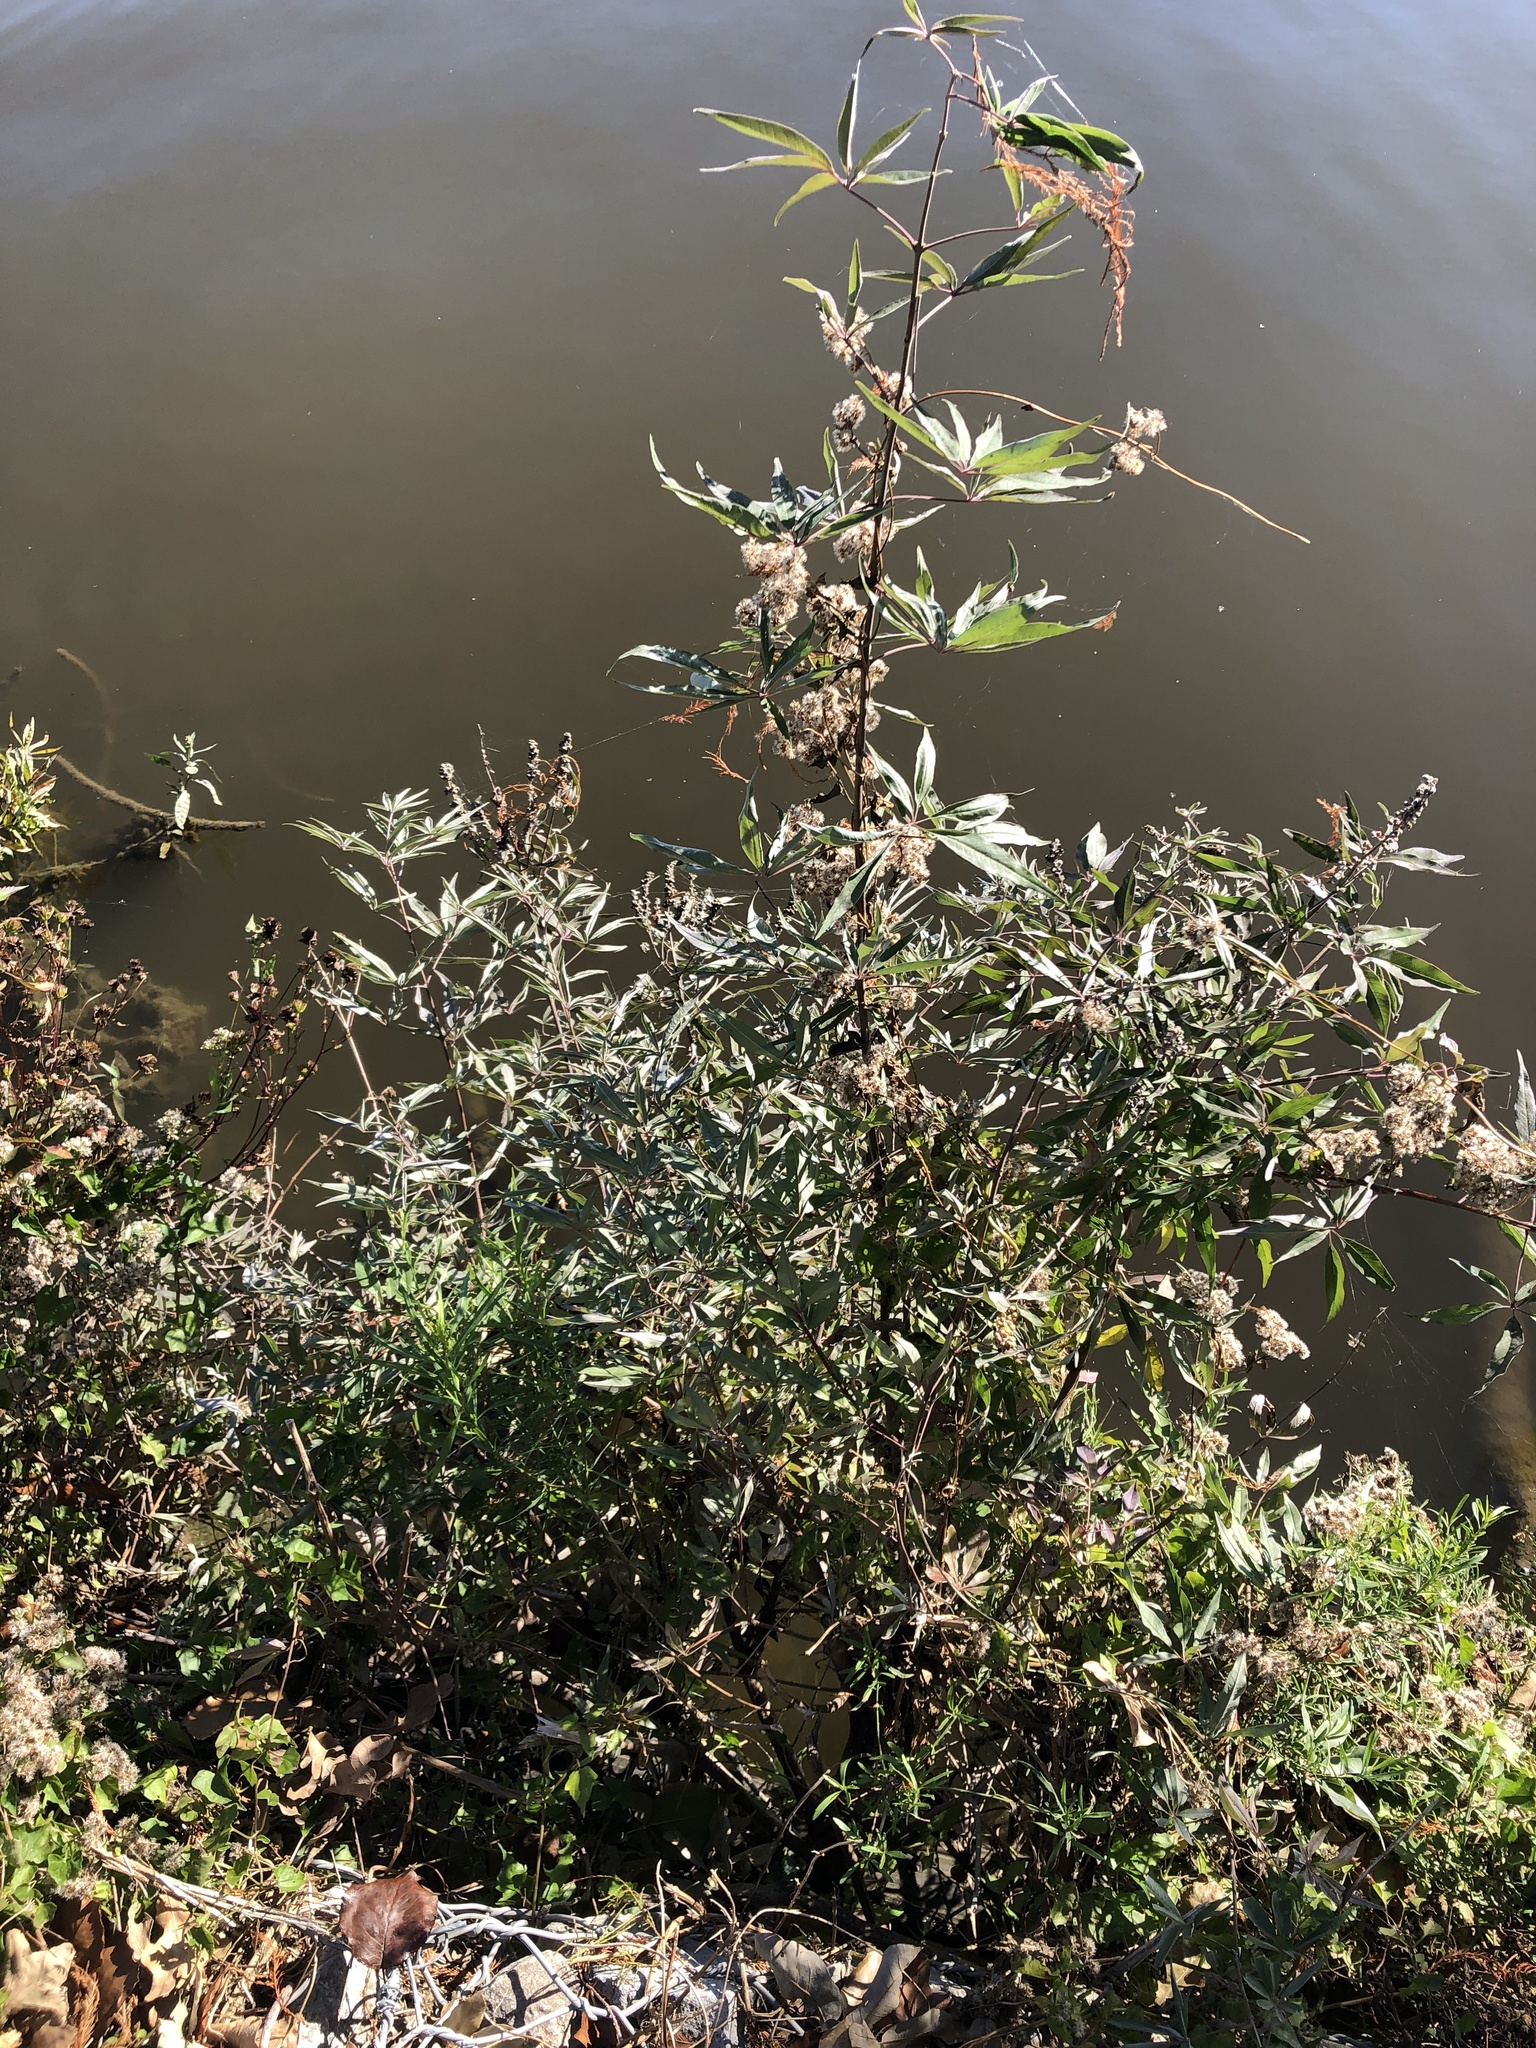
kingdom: Plantae
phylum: Tracheophyta
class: Magnoliopsida
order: Lamiales
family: Lamiaceae
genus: Vitex
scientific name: Vitex agnus-castus
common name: Chasteberry
